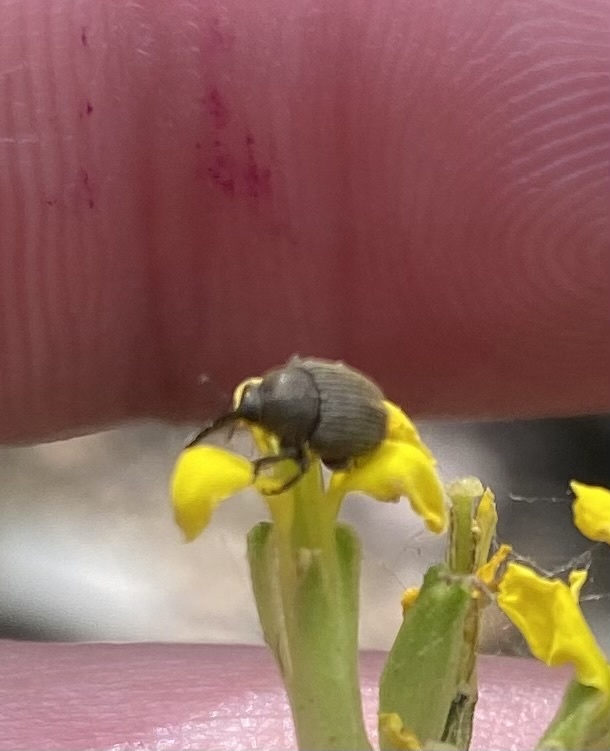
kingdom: Animalia
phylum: Arthropoda
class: Insecta
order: Coleoptera
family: Curculionidae
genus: Gymnetron
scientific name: Gymnetron distinctus
